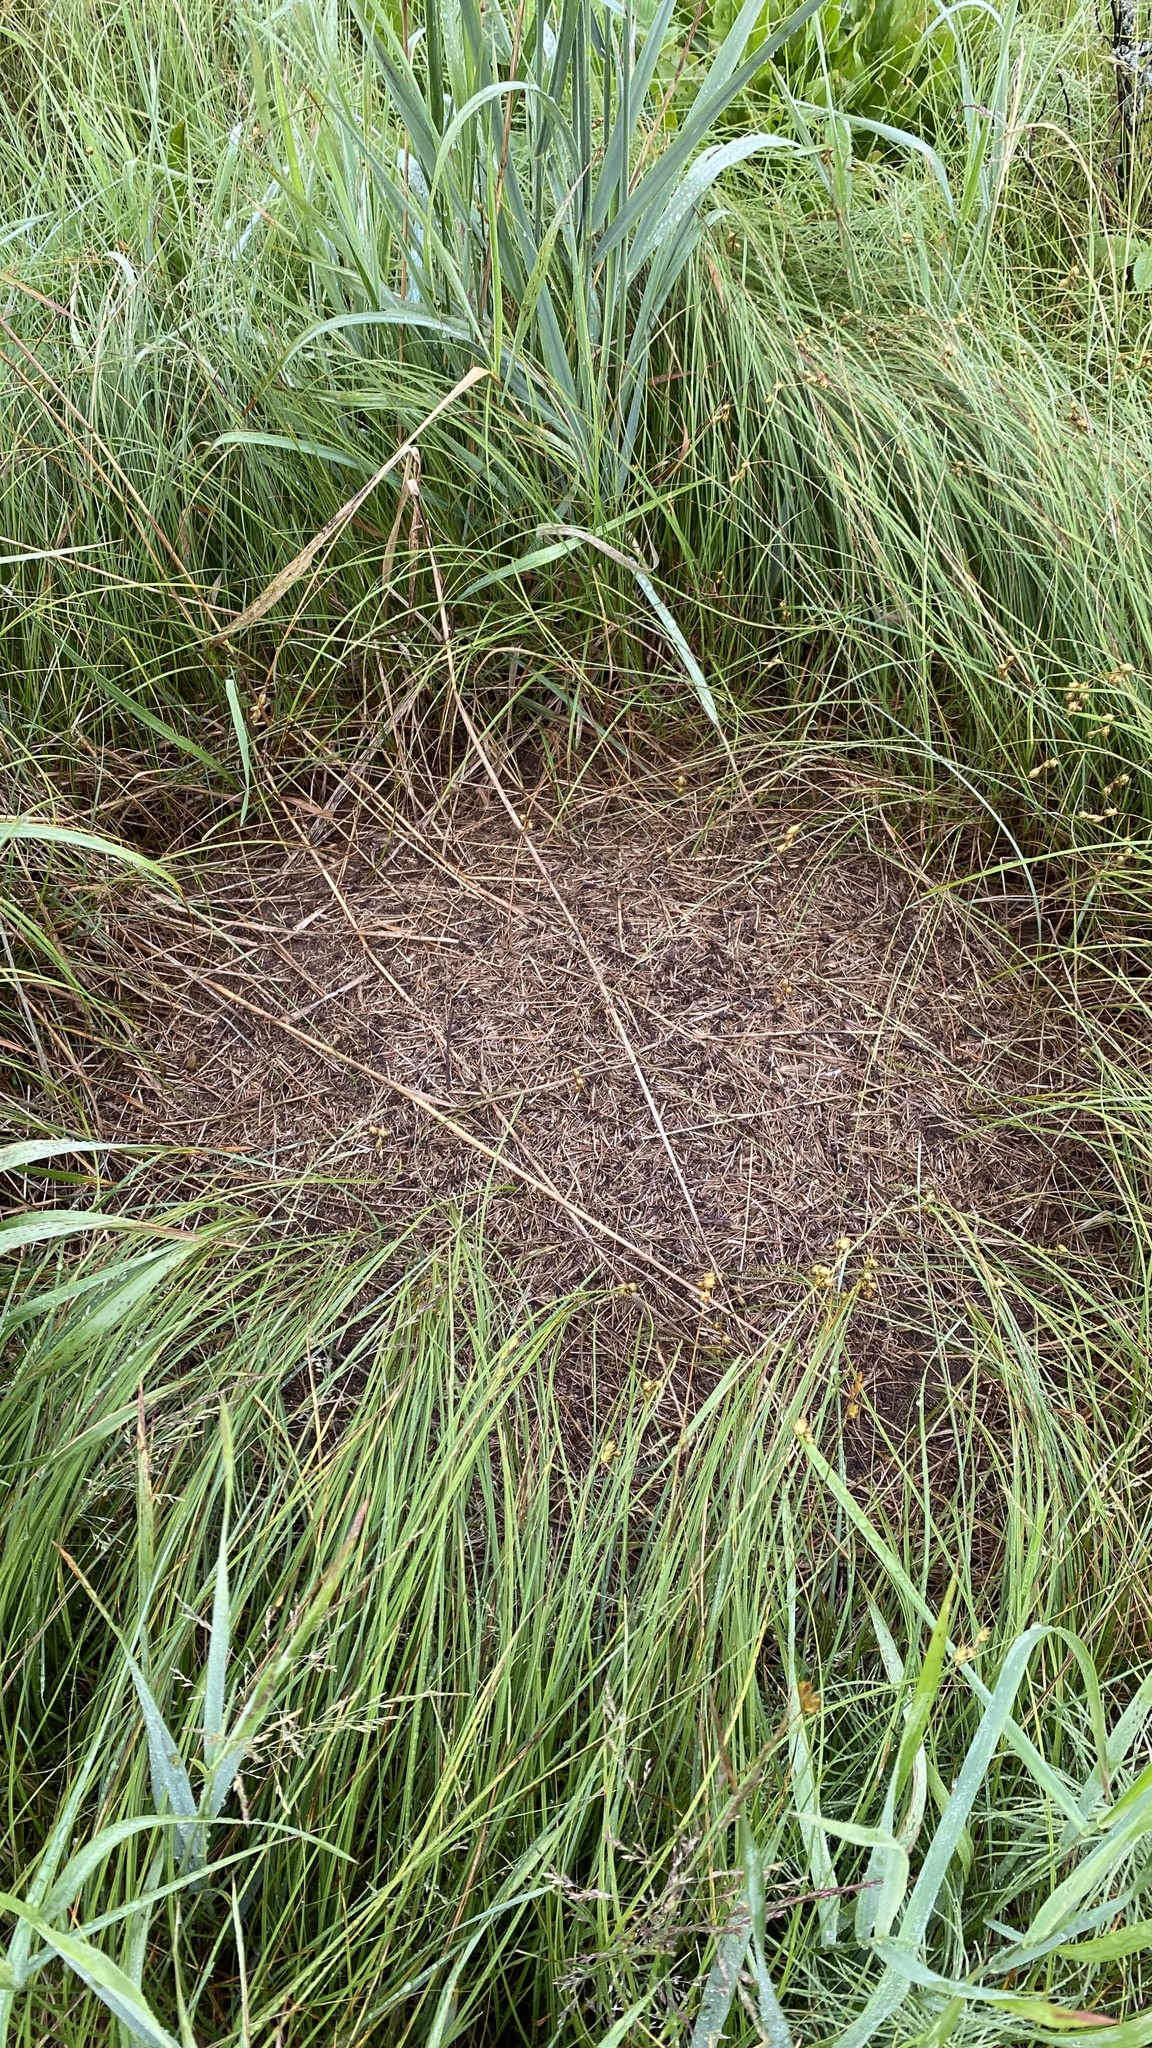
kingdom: Animalia
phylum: Arthropoda
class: Insecta
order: Hymenoptera
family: Formicidae
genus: Formica
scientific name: Formica pratensis
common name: European red wood ant
